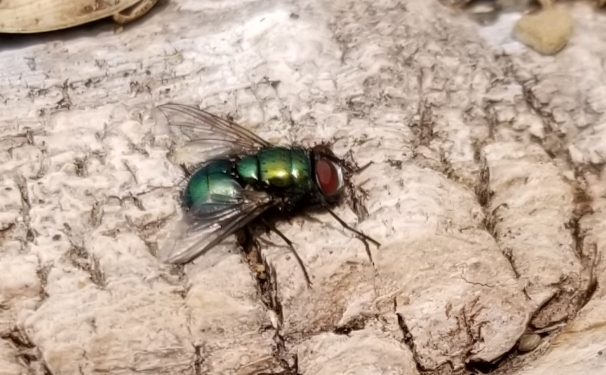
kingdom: Animalia
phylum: Arthropoda
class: Insecta
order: Diptera
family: Calliphoridae
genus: Lucilia
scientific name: Lucilia sericata
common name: Blow fly
